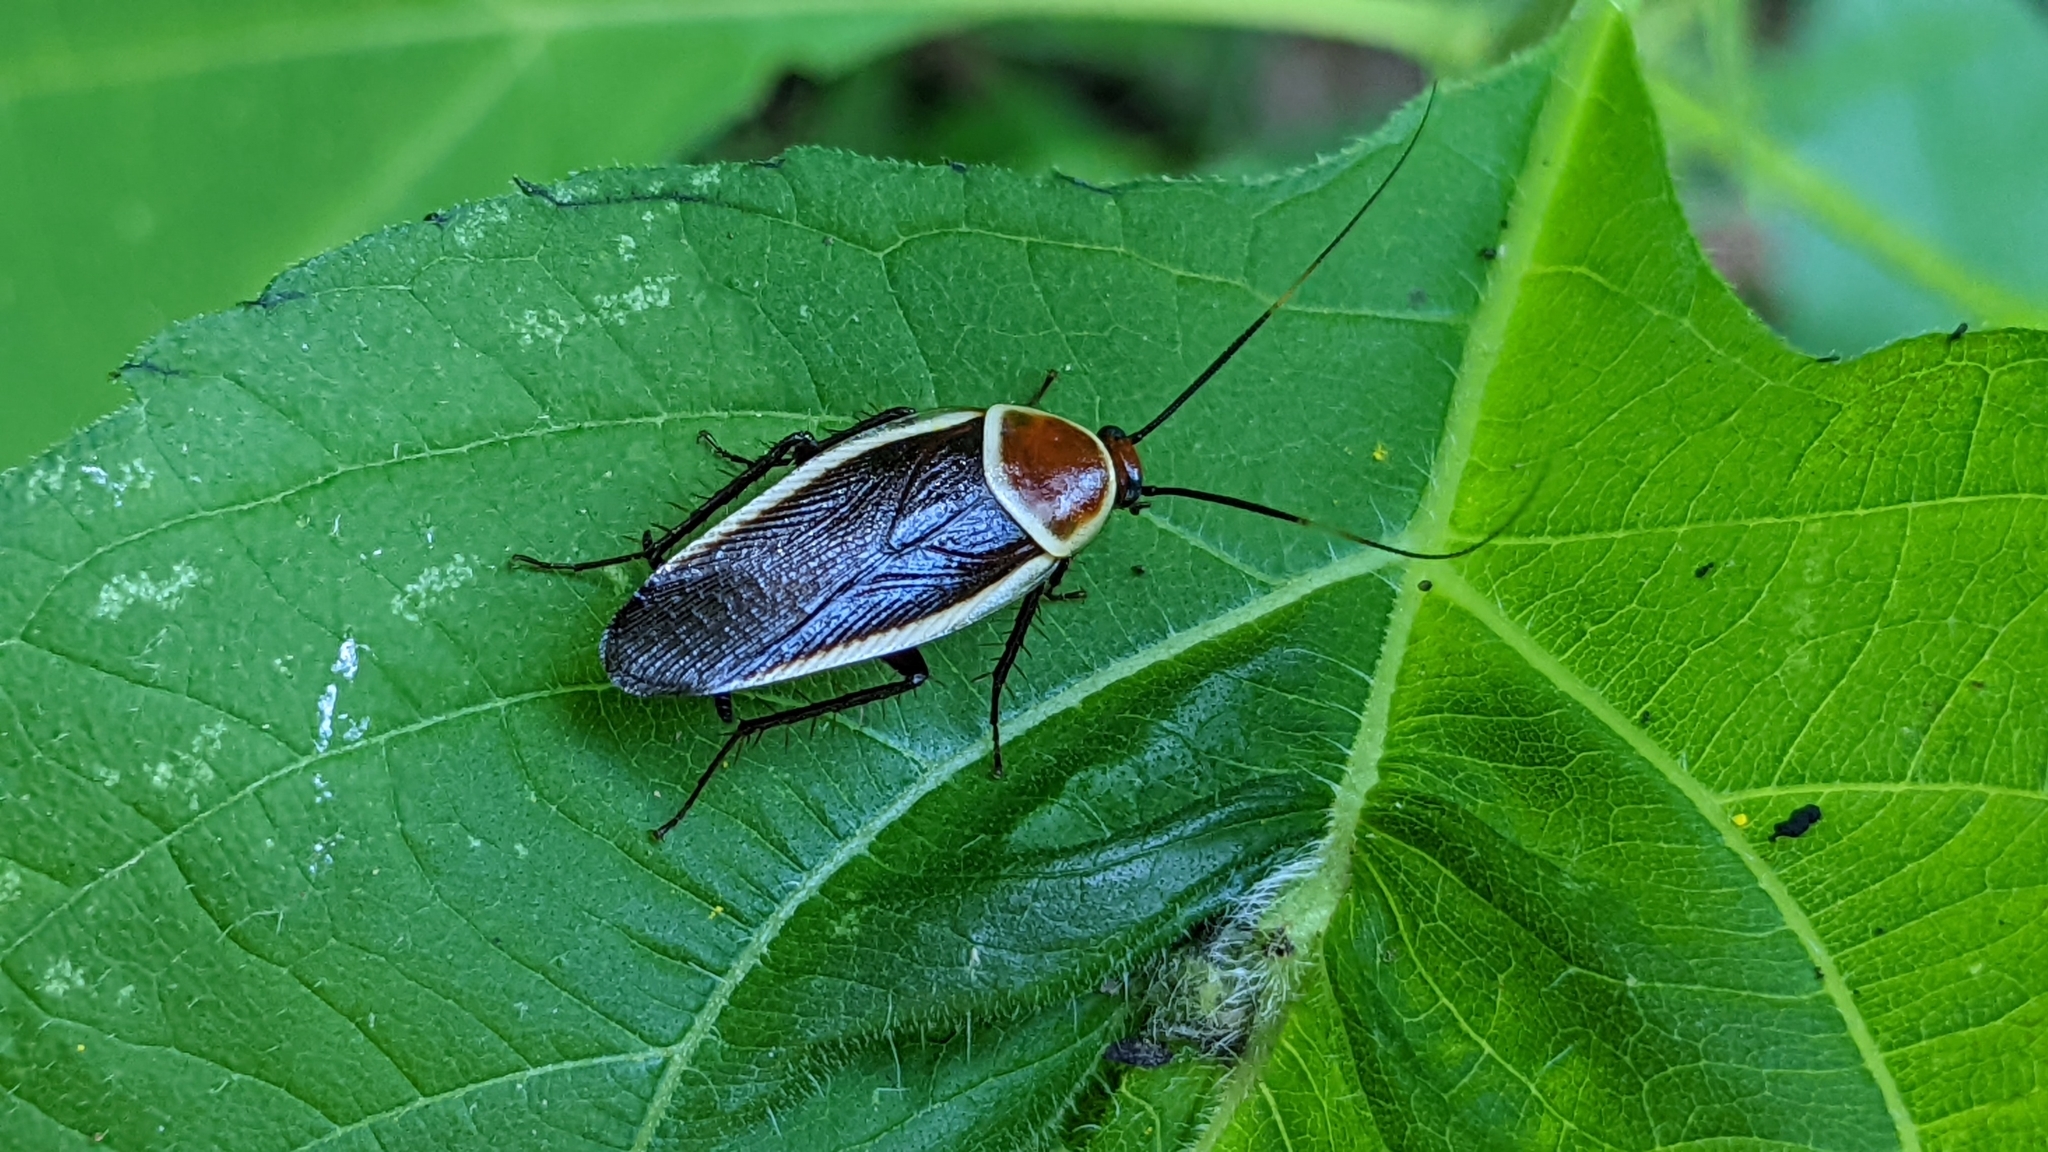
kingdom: Animalia
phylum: Arthropoda
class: Insecta
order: Blattodea
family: Ectobiidae
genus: Pseudomops
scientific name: Pseudomops septentrionalis
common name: Pale-bordered field cockroach
